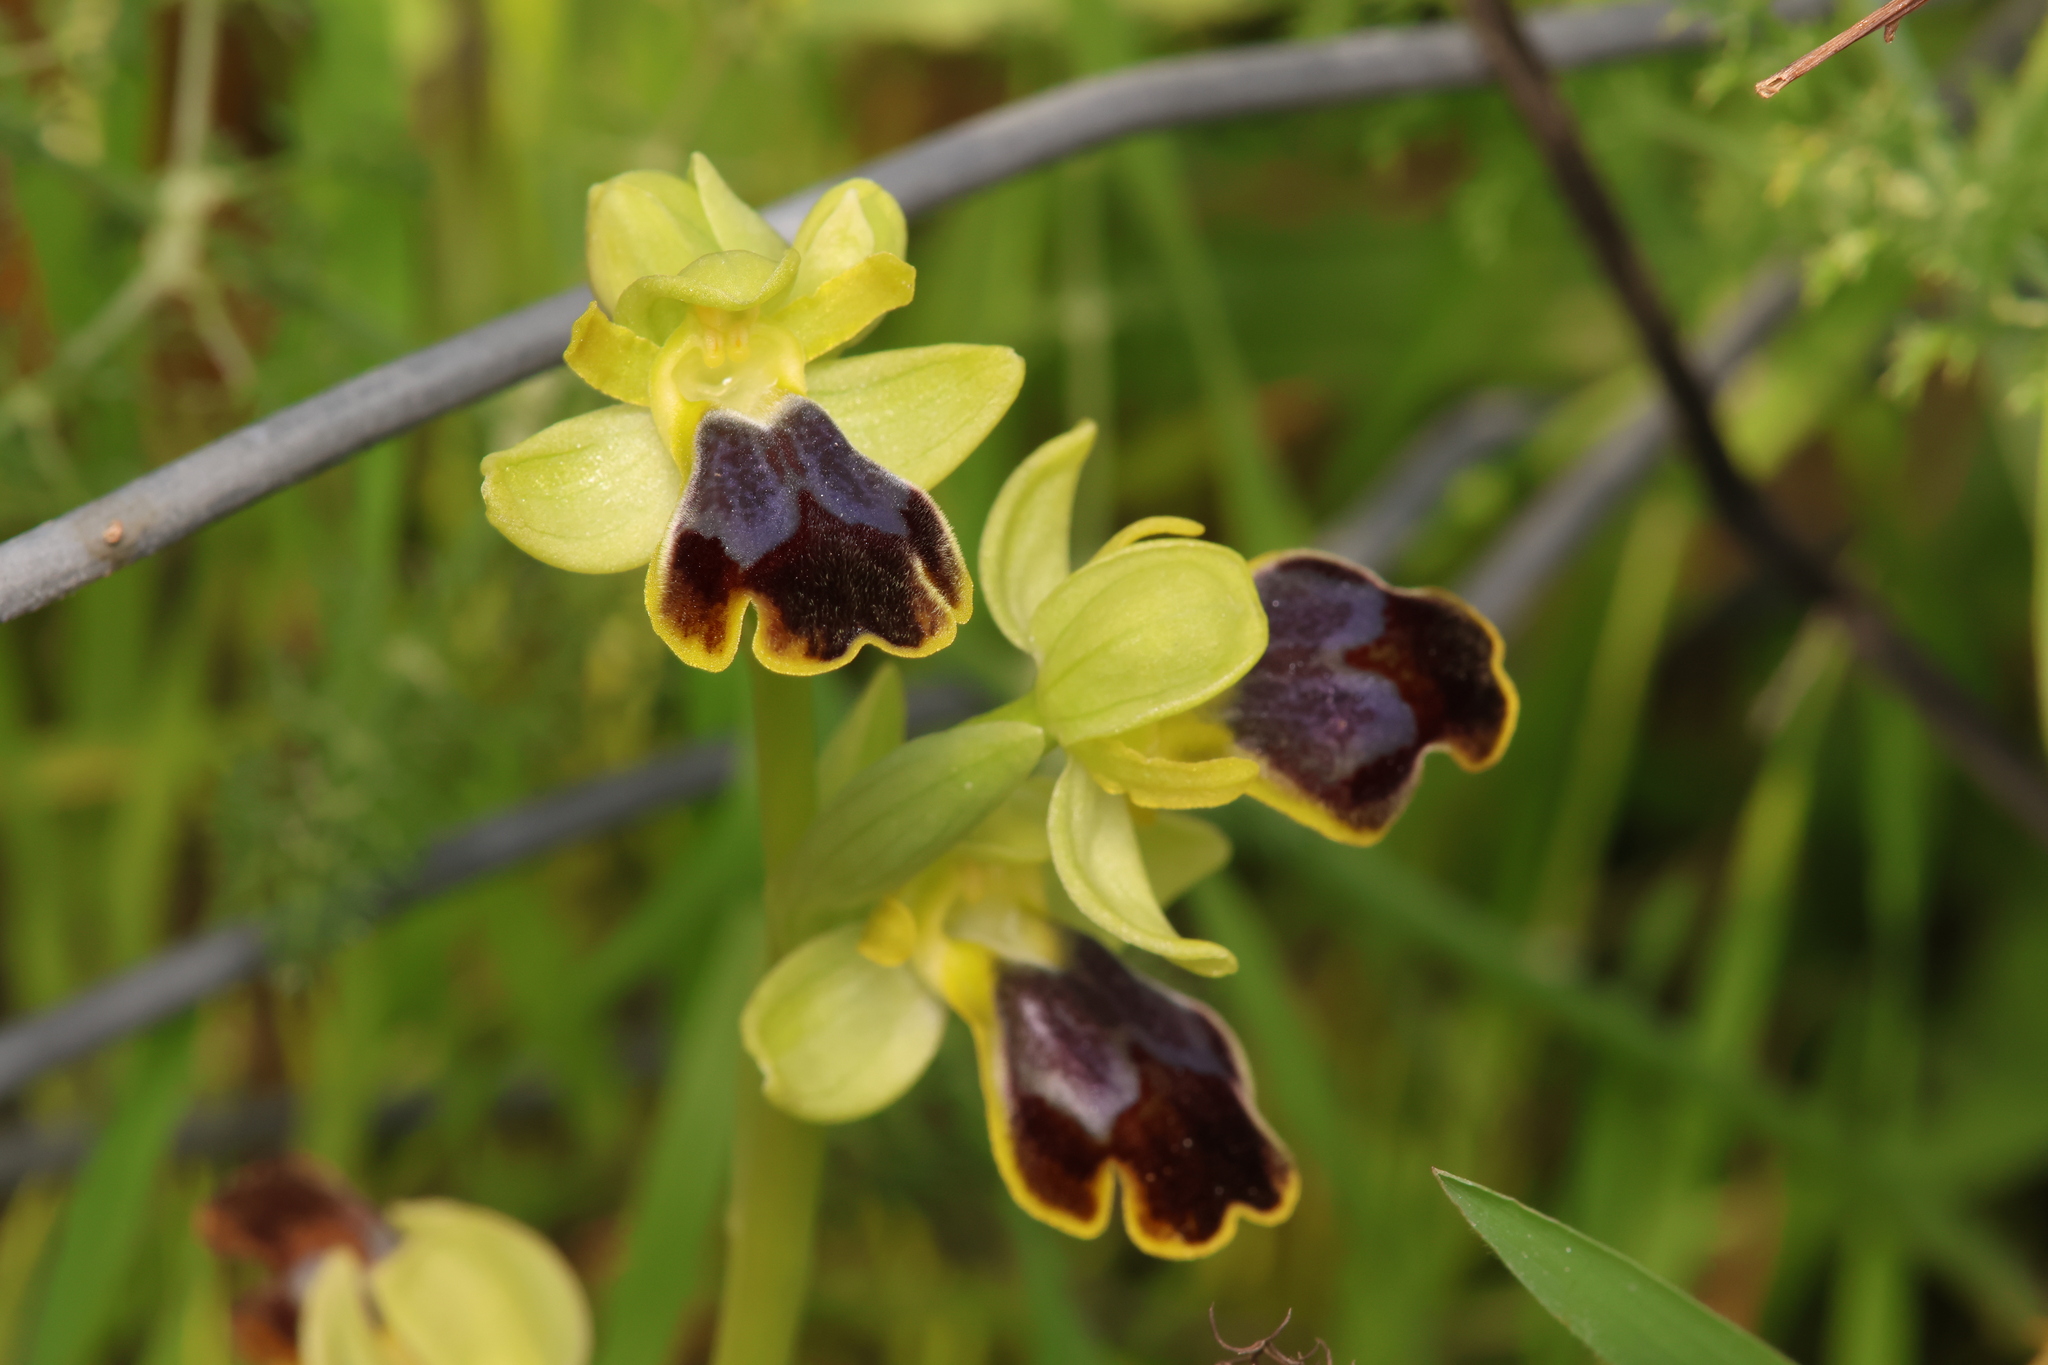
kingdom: Plantae
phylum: Tracheophyta
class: Liliopsida
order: Asparagales
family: Orchidaceae
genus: Ophrys
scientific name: Ophrys fusca
